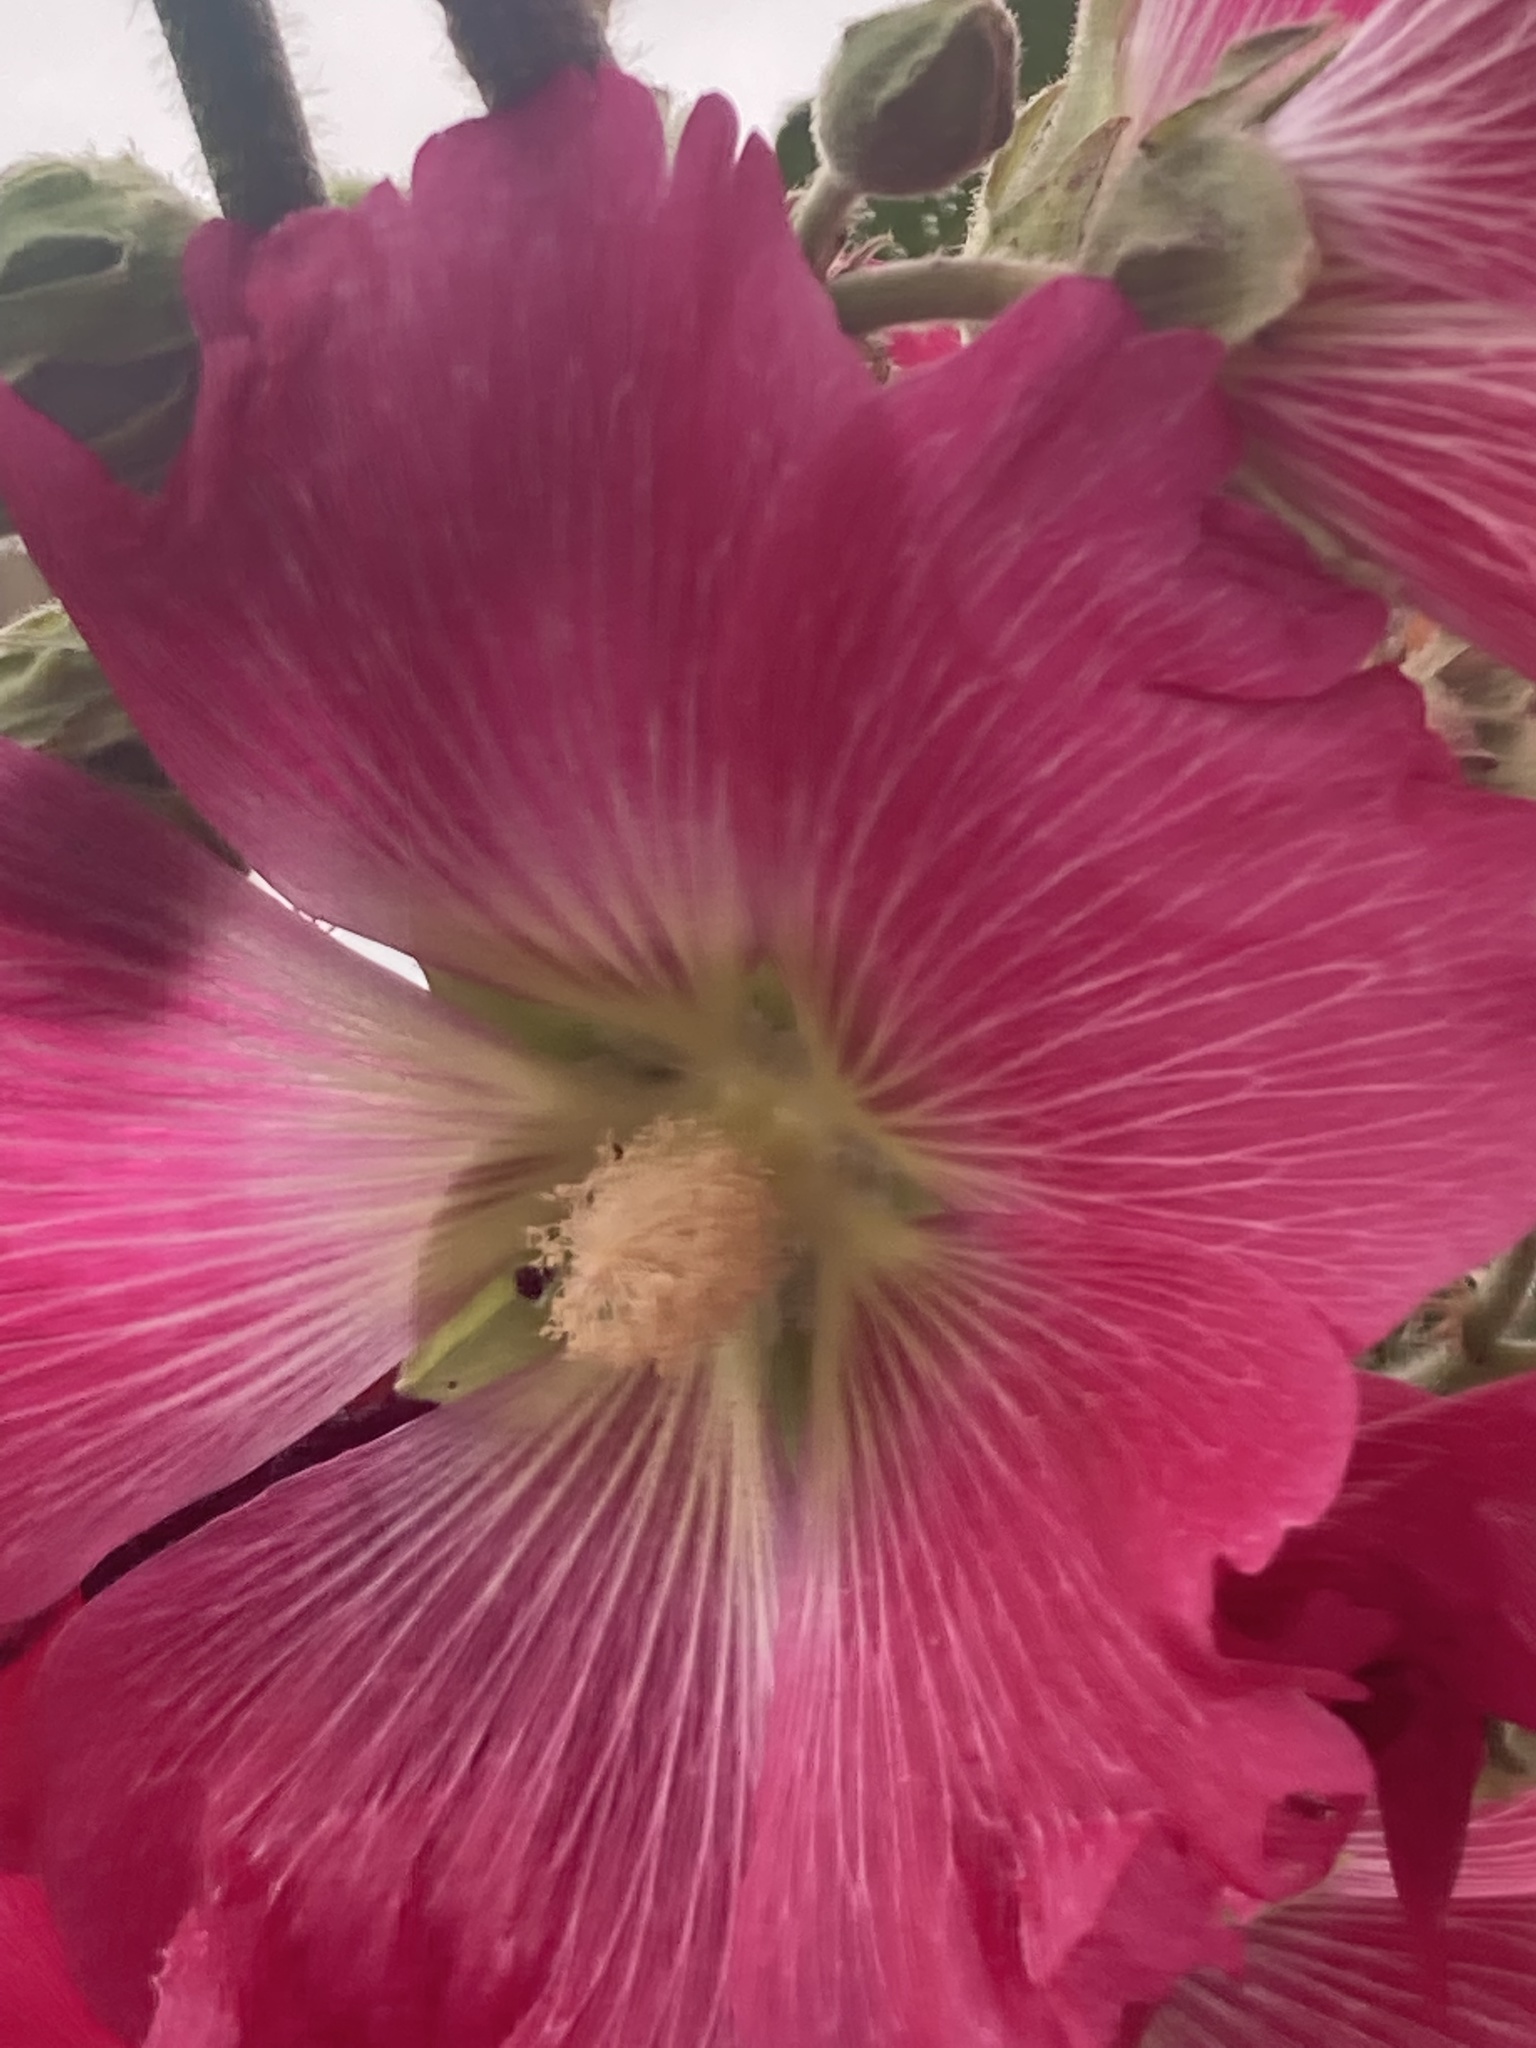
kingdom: Plantae
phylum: Tracheophyta
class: Magnoliopsida
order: Malvales
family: Malvaceae
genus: Alcea
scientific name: Alcea rosea
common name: Hollyhock
